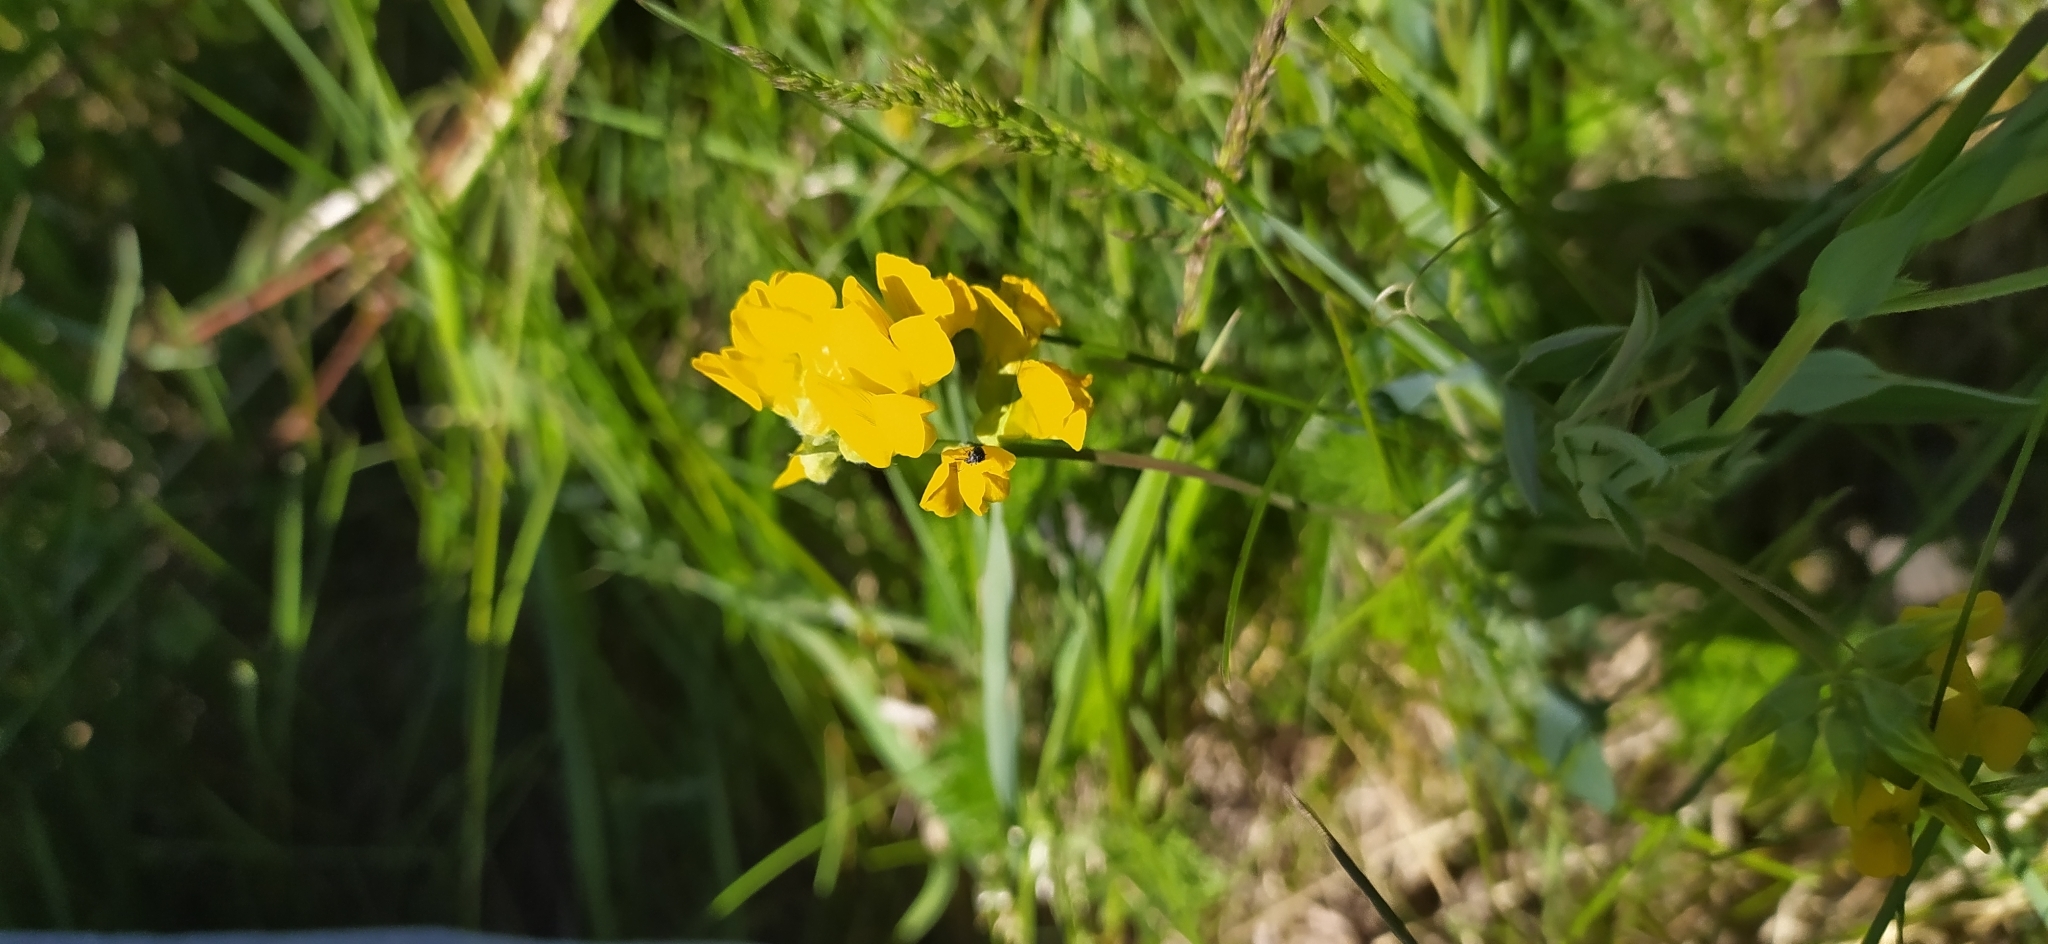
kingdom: Plantae
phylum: Tracheophyta
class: Magnoliopsida
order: Fabales
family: Fabaceae
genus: Lathyrus
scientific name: Lathyrus pratensis
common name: Meadow vetchling
